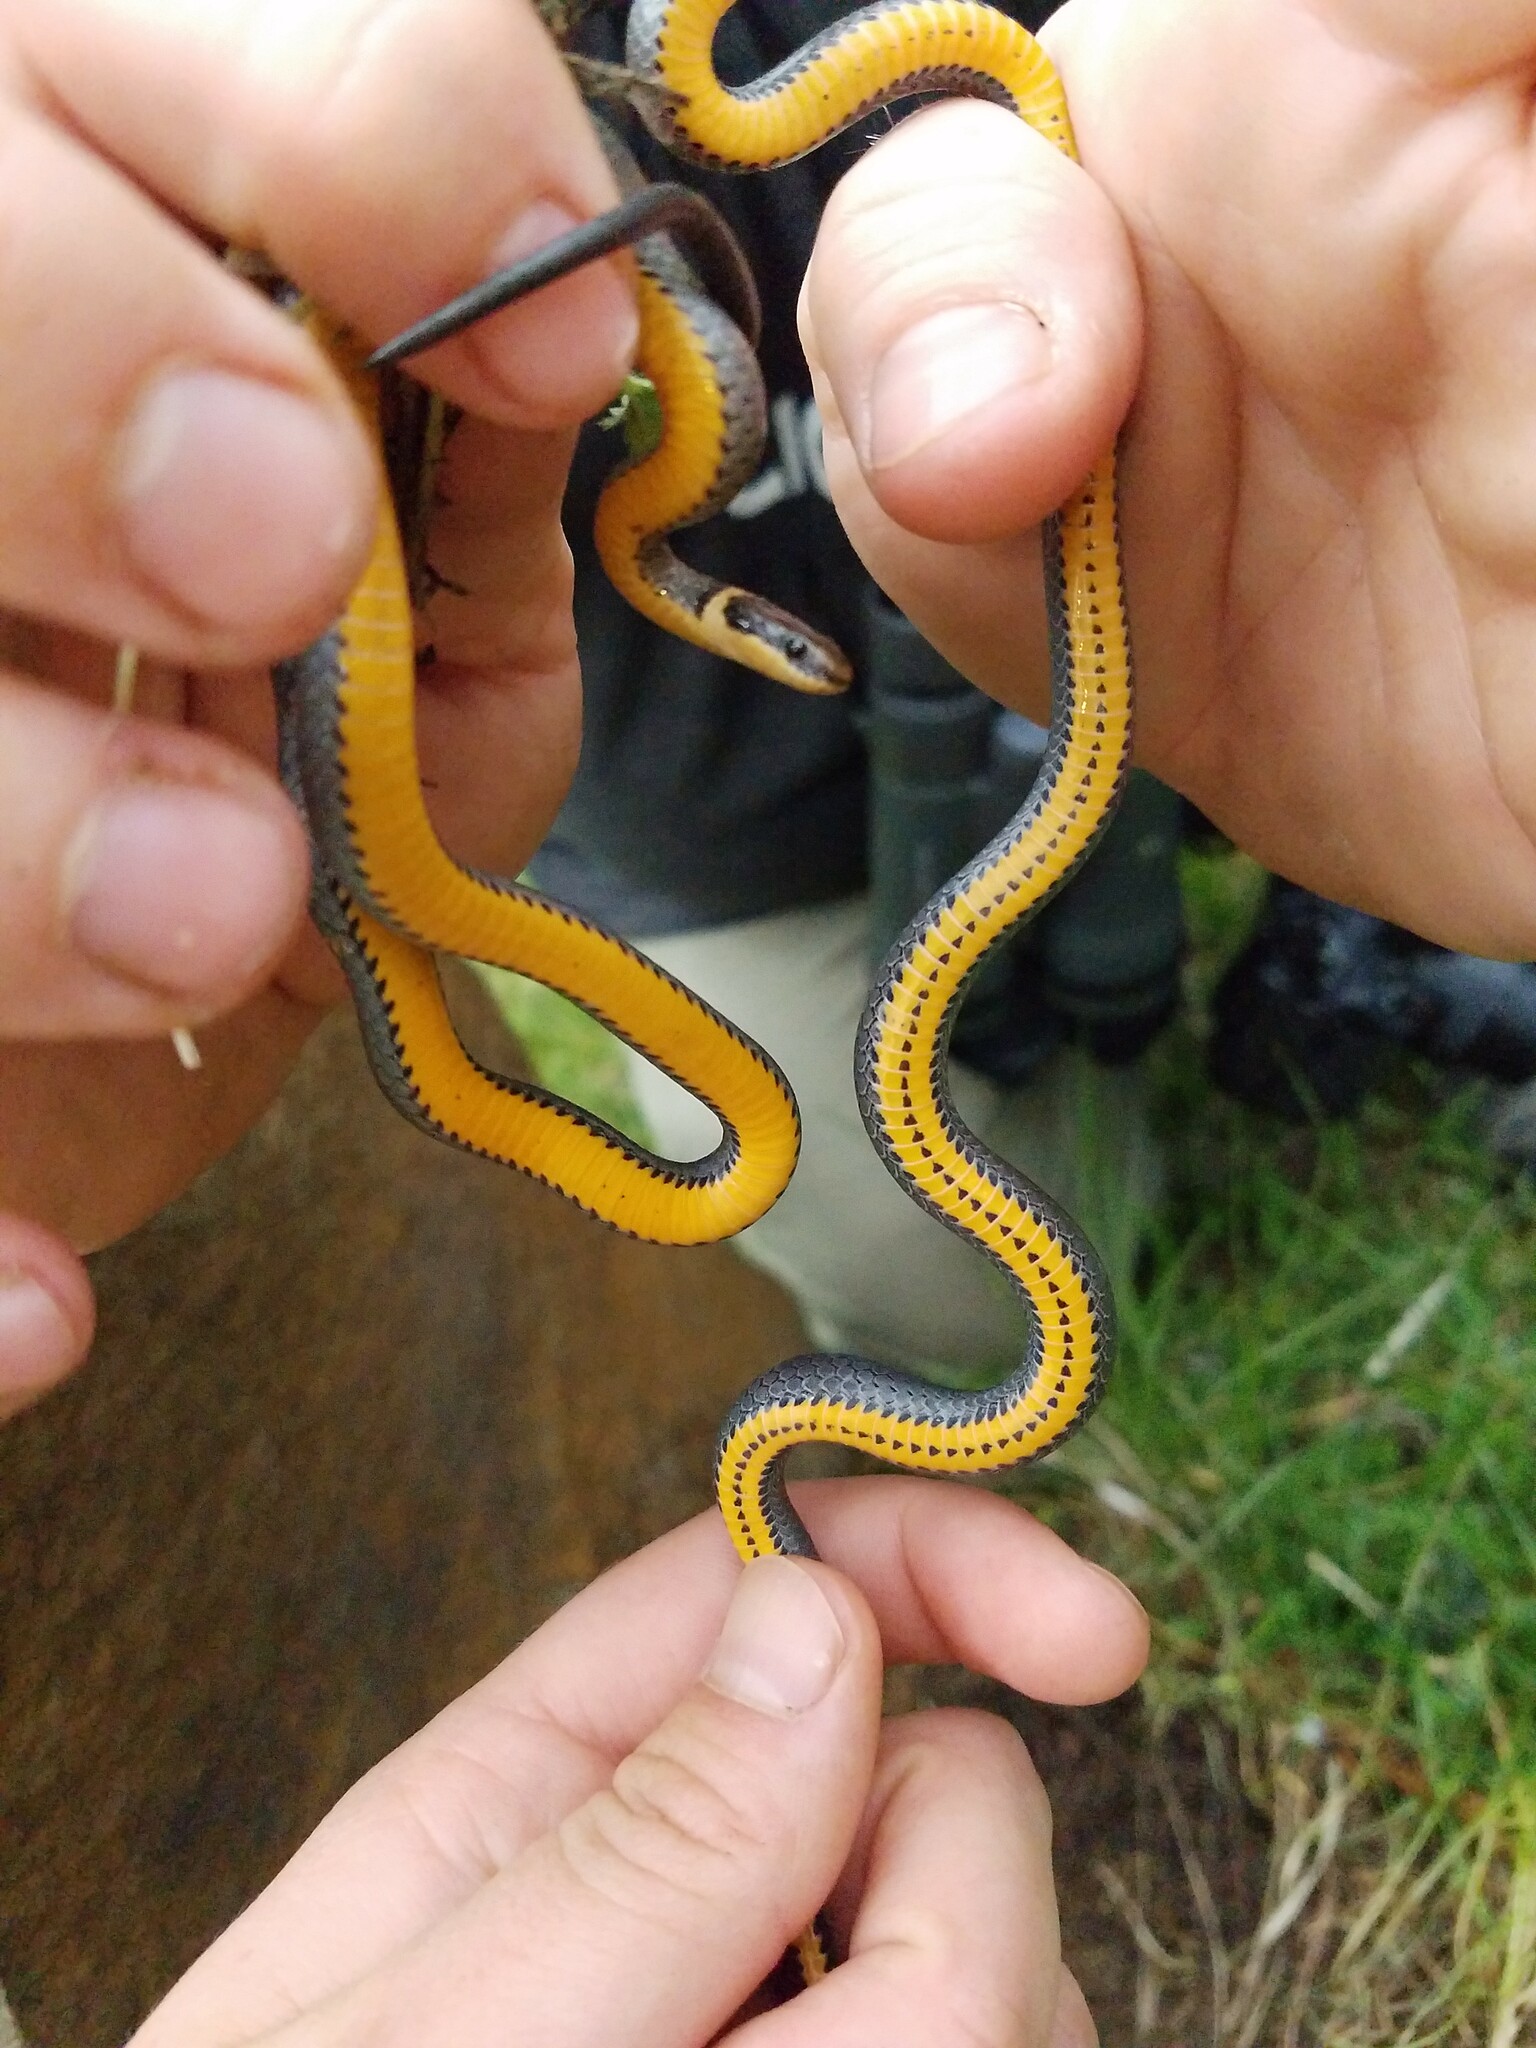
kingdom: Animalia
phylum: Chordata
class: Squamata
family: Colubridae
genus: Diadophis
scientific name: Diadophis punctatus
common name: Ringneck snake
